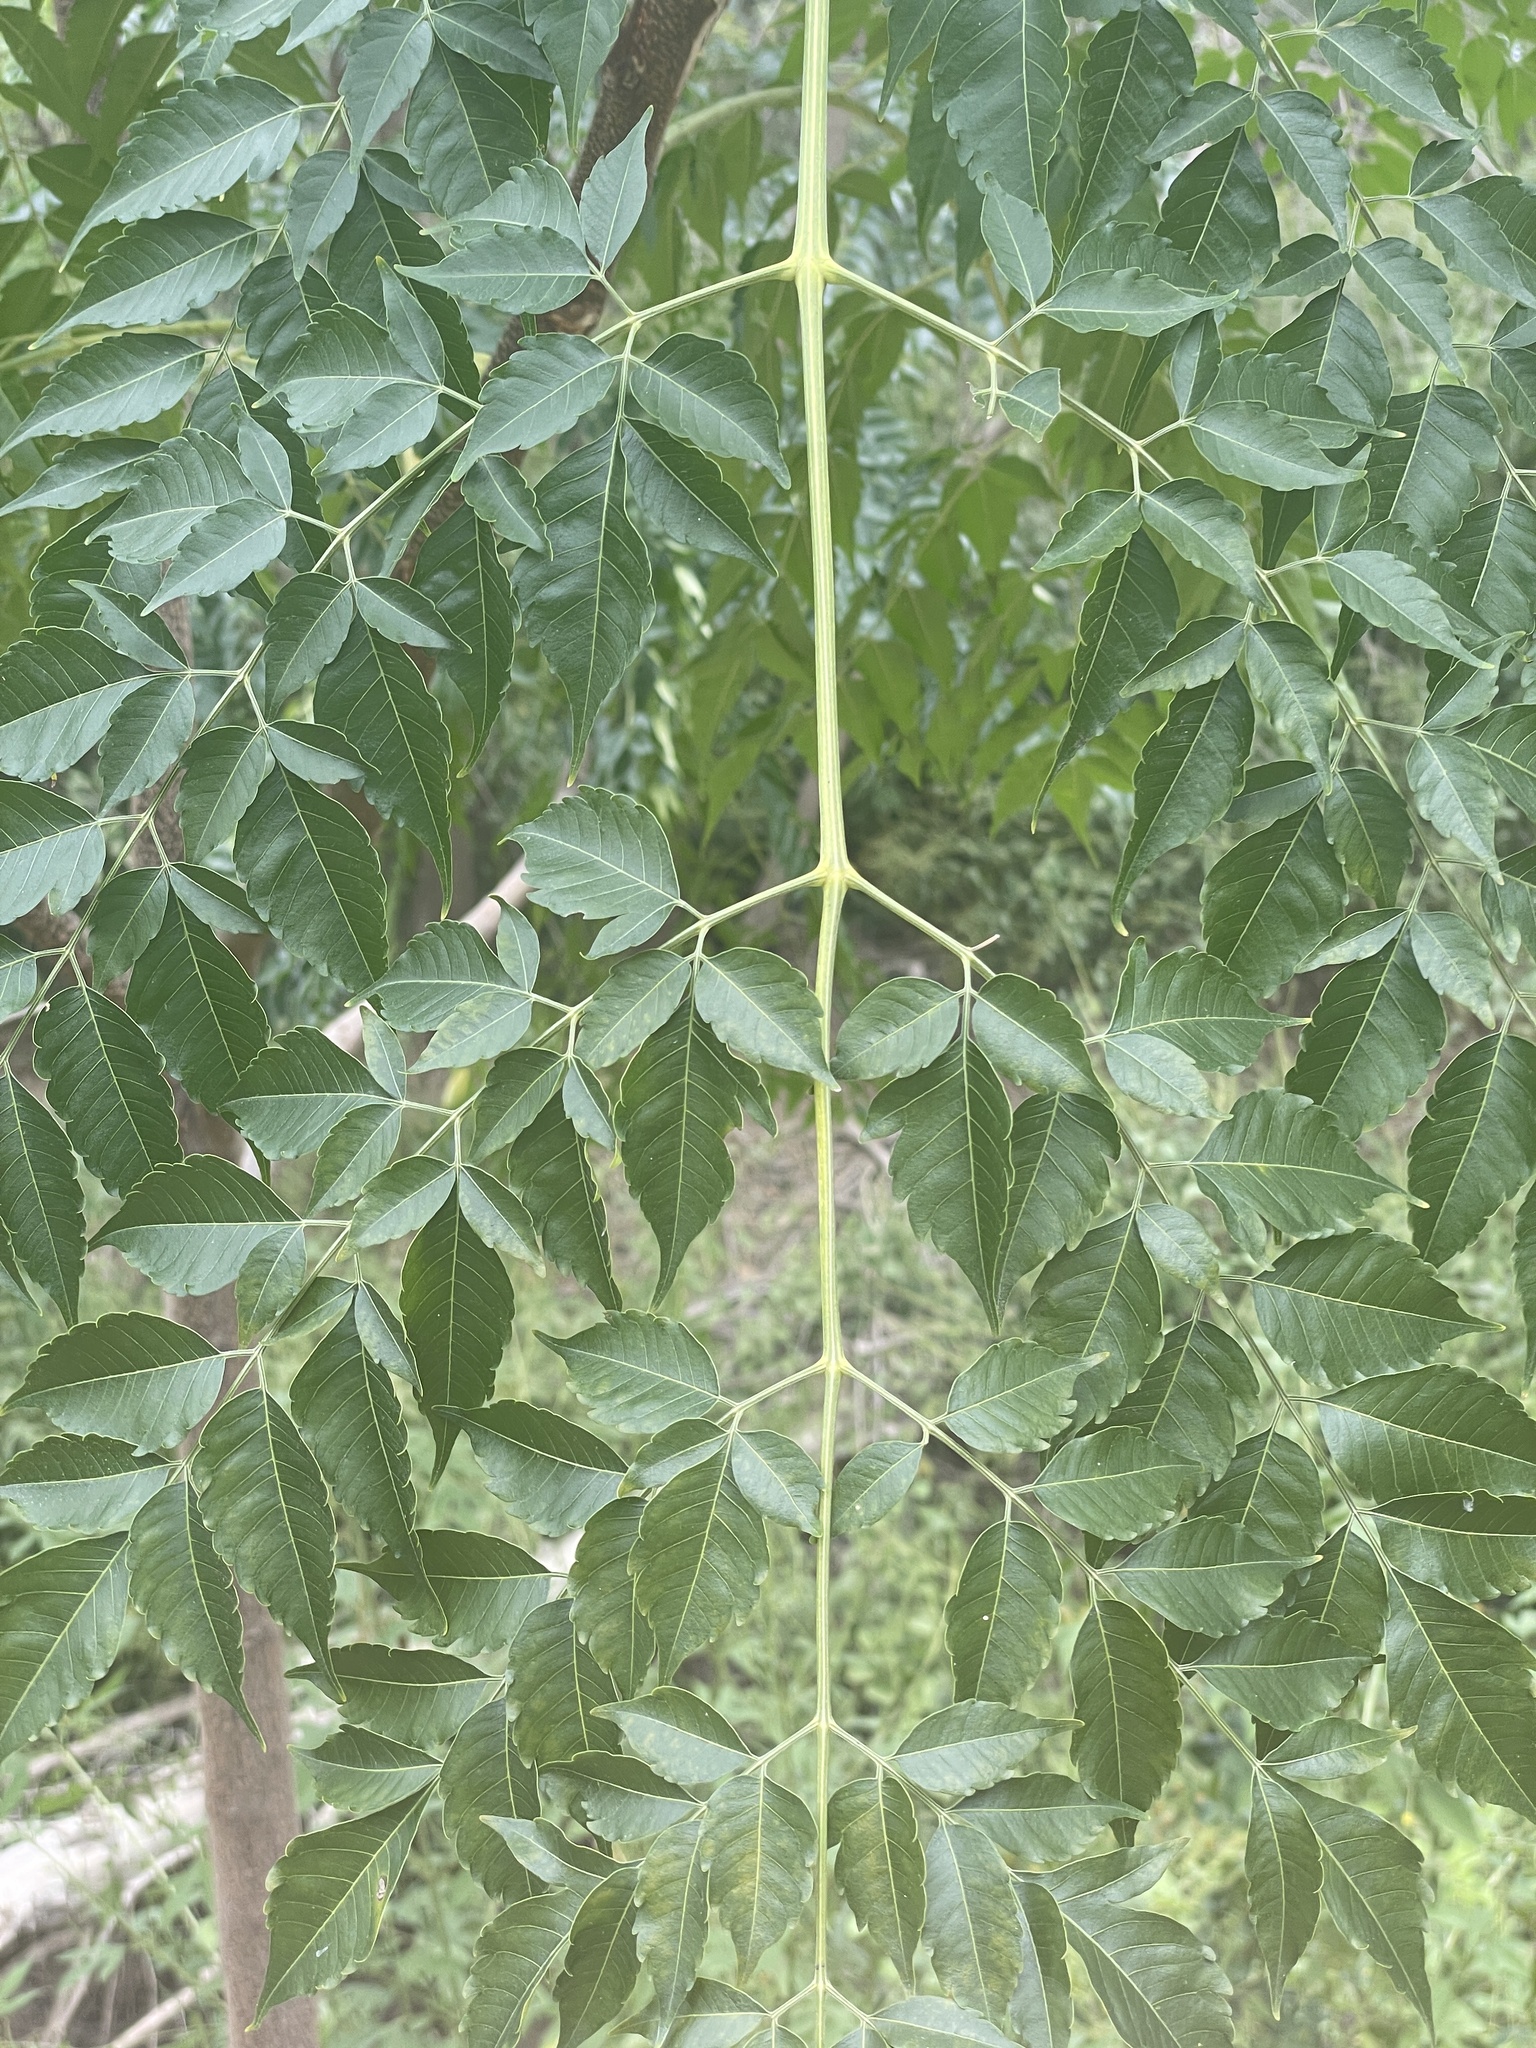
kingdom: Plantae
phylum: Tracheophyta
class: Magnoliopsida
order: Sapindales
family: Meliaceae
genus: Melia
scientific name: Melia azedarach
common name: Chinaberrytree
